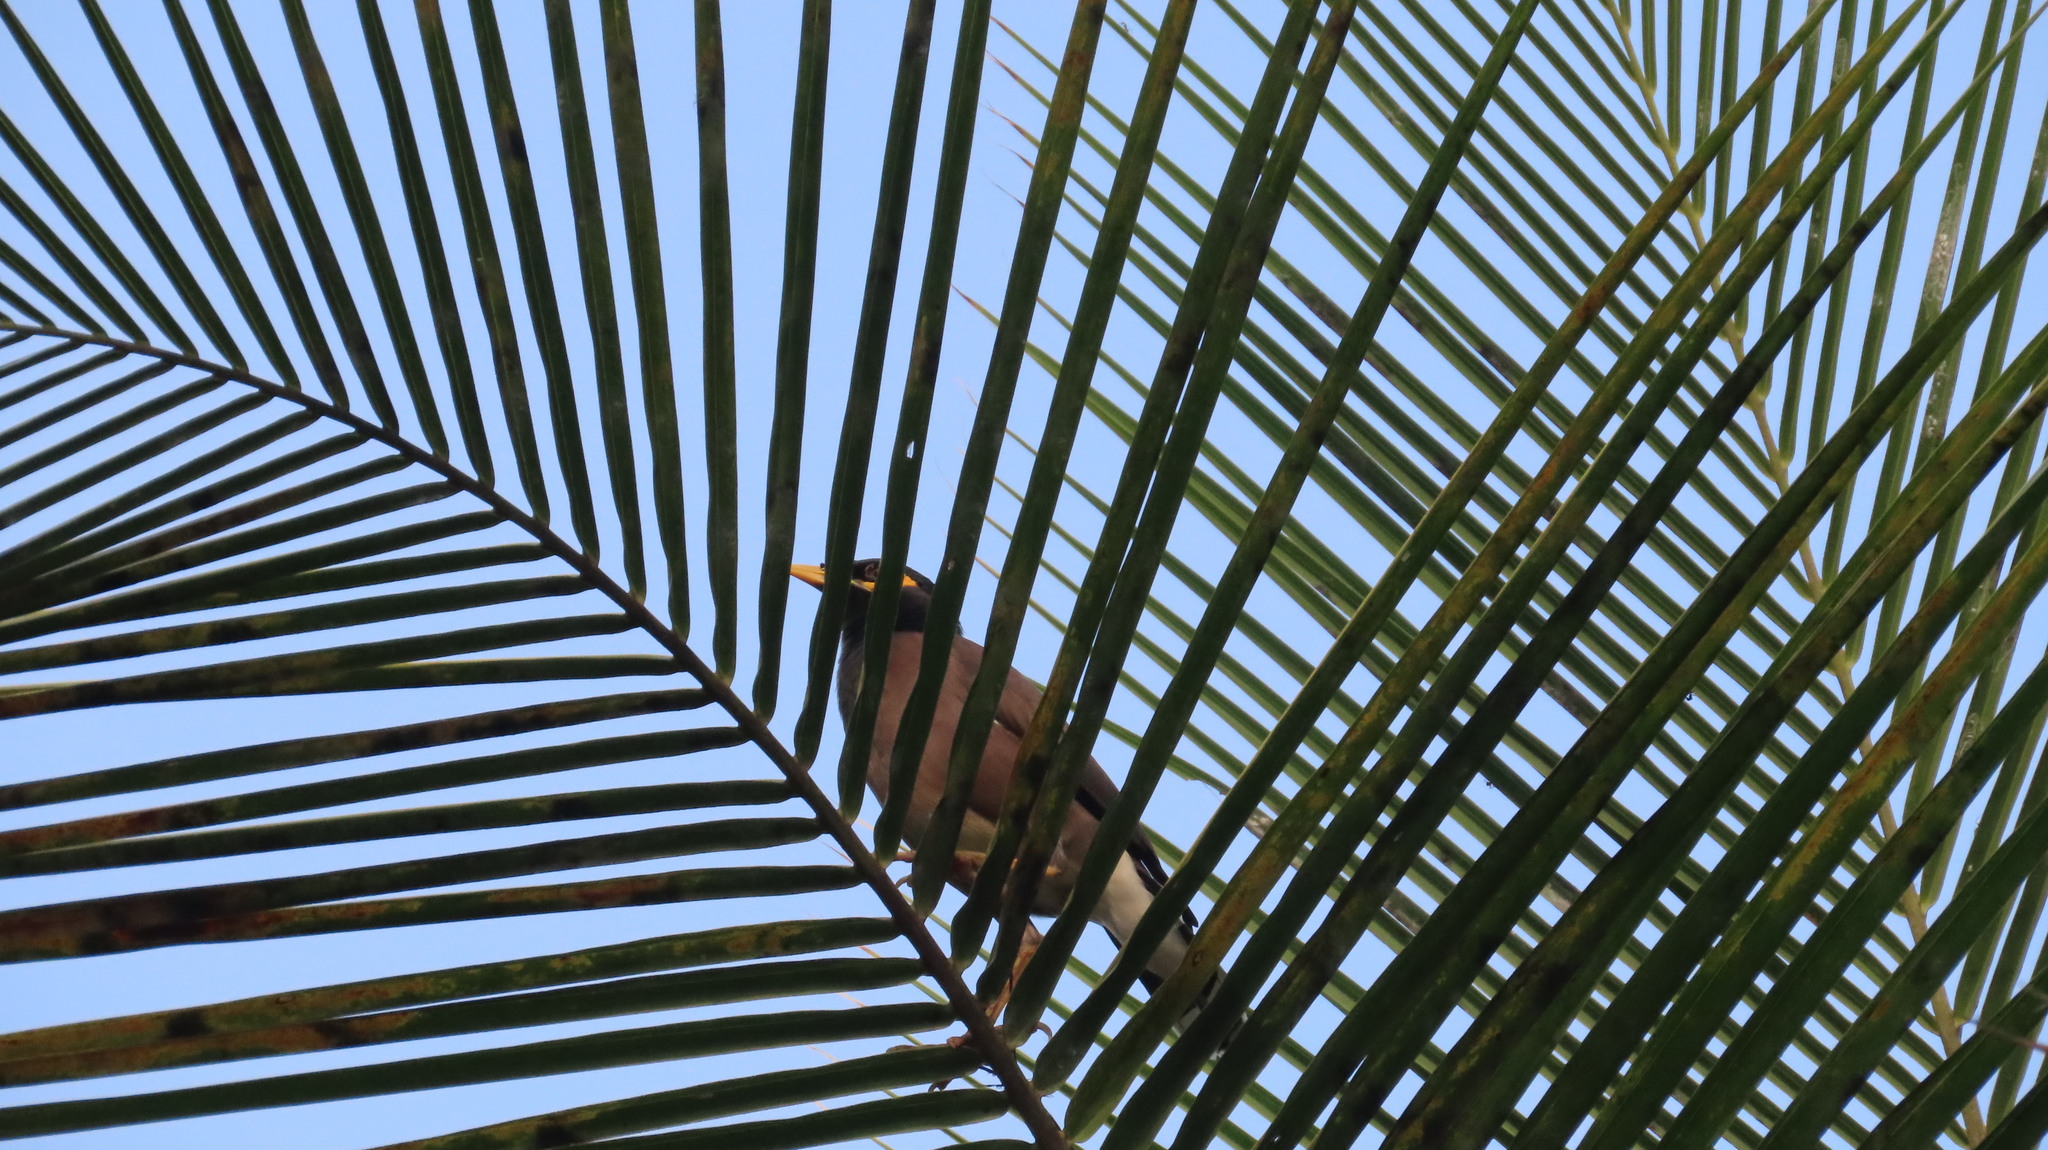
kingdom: Animalia
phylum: Chordata
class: Aves
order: Passeriformes
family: Sturnidae
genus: Acridotheres
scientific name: Acridotheres tristis
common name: Common myna
